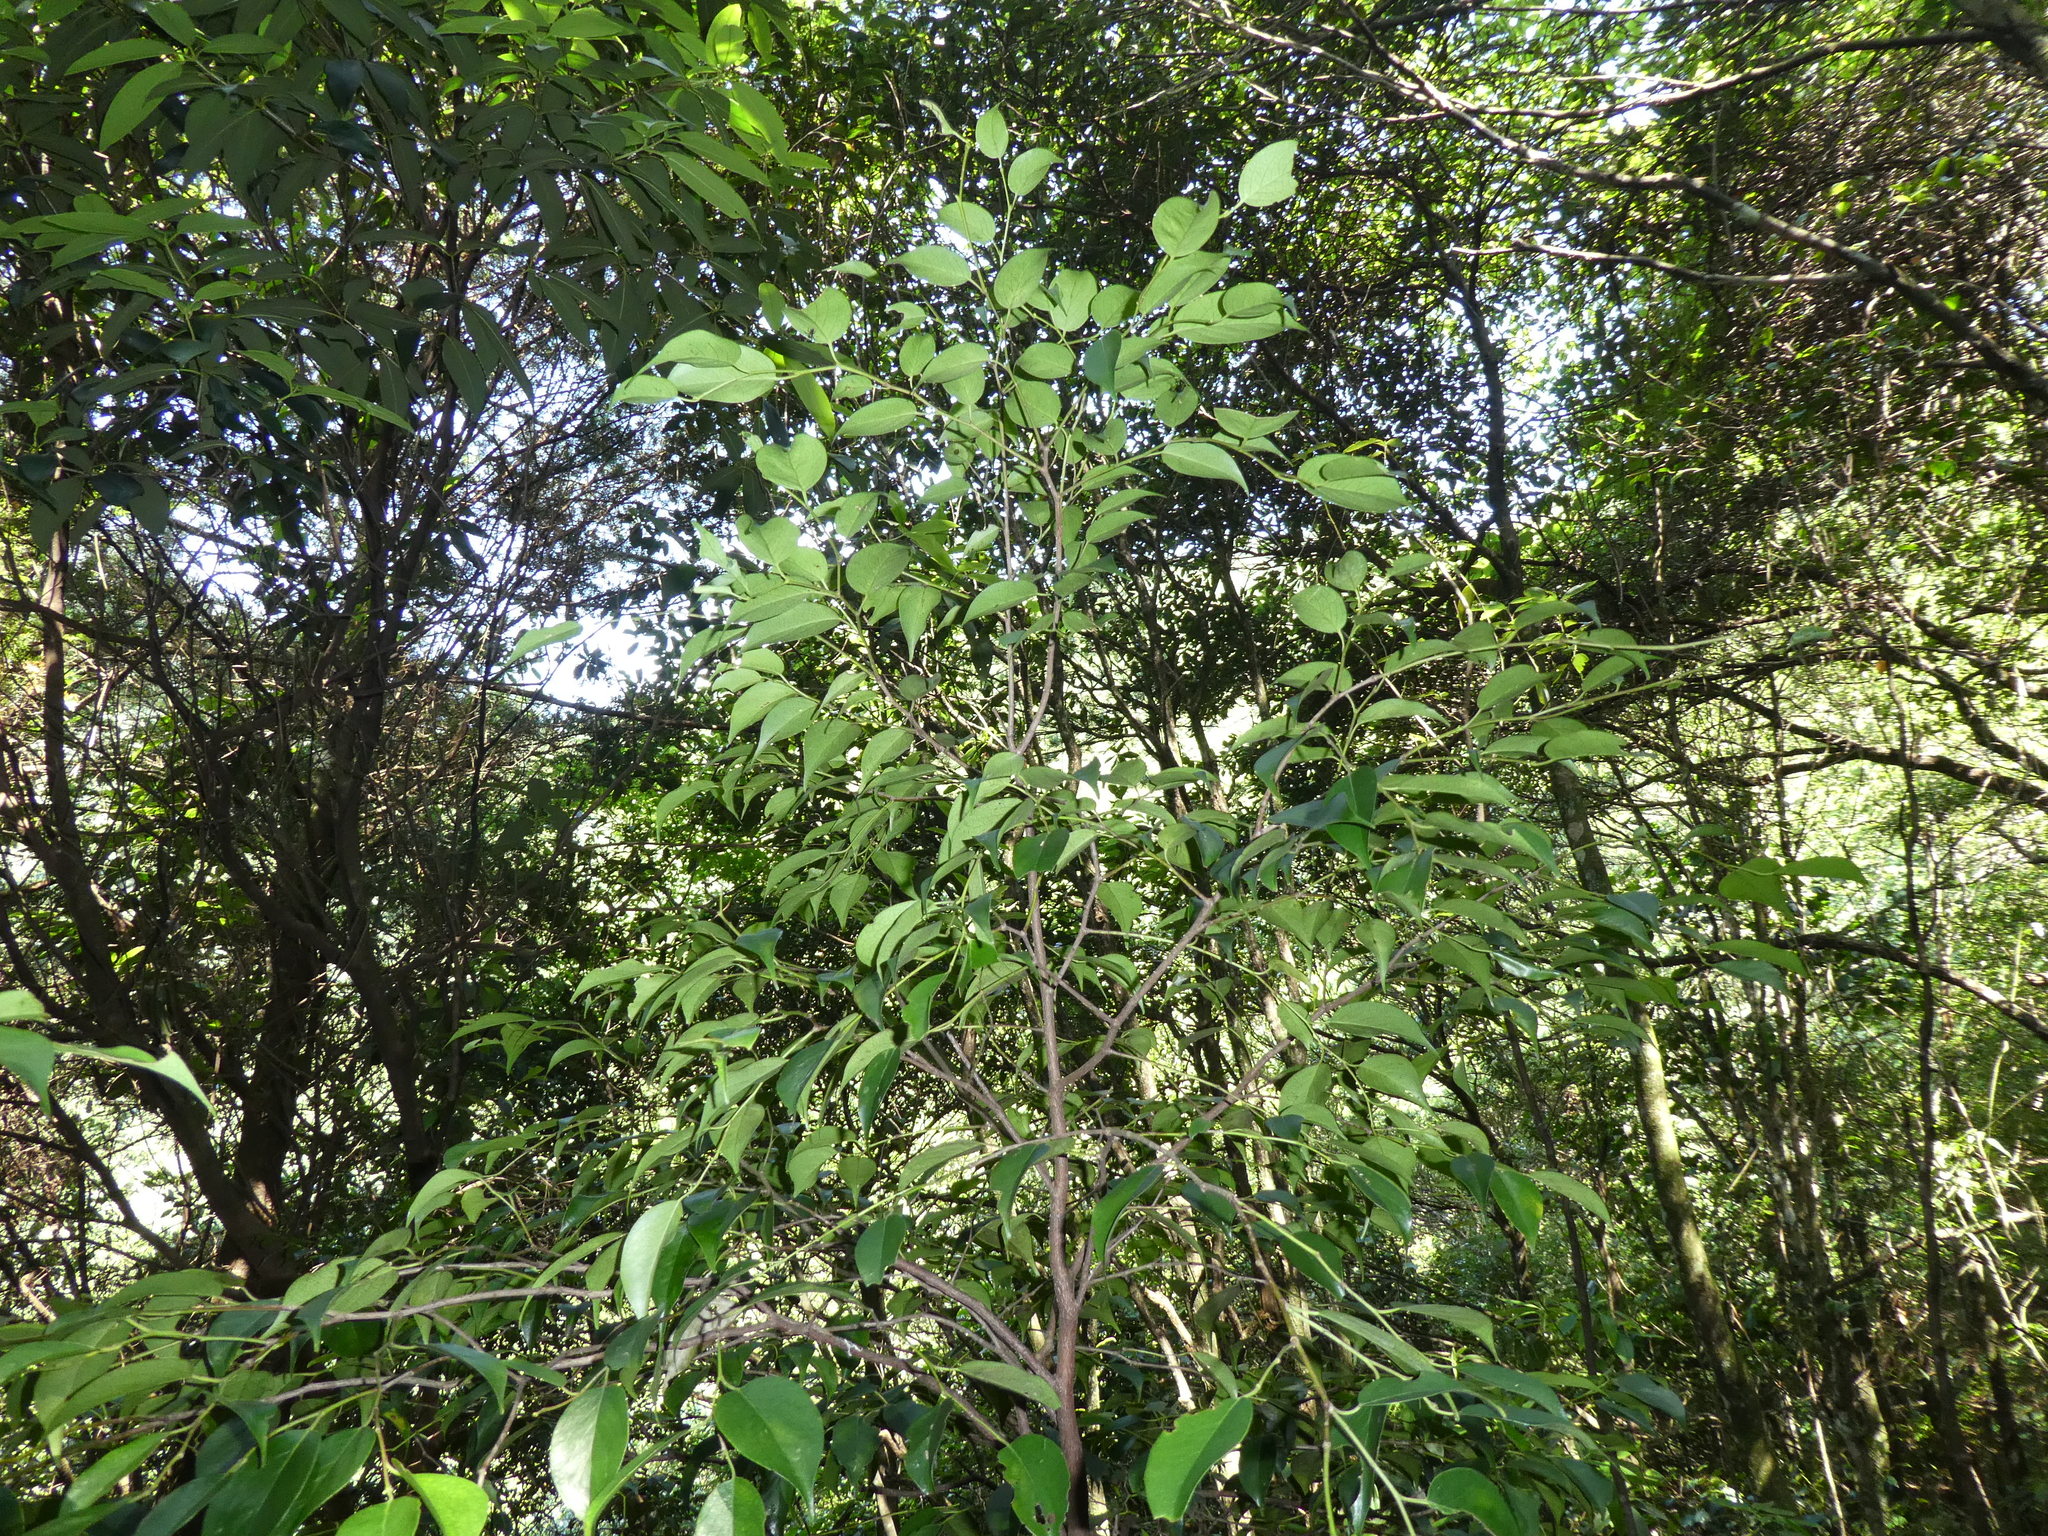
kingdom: Plantae
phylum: Tracheophyta
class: Magnoliopsida
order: Ericales
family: Pentaphylacaceae
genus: Pentaphylax
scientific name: Pentaphylax euryoides
